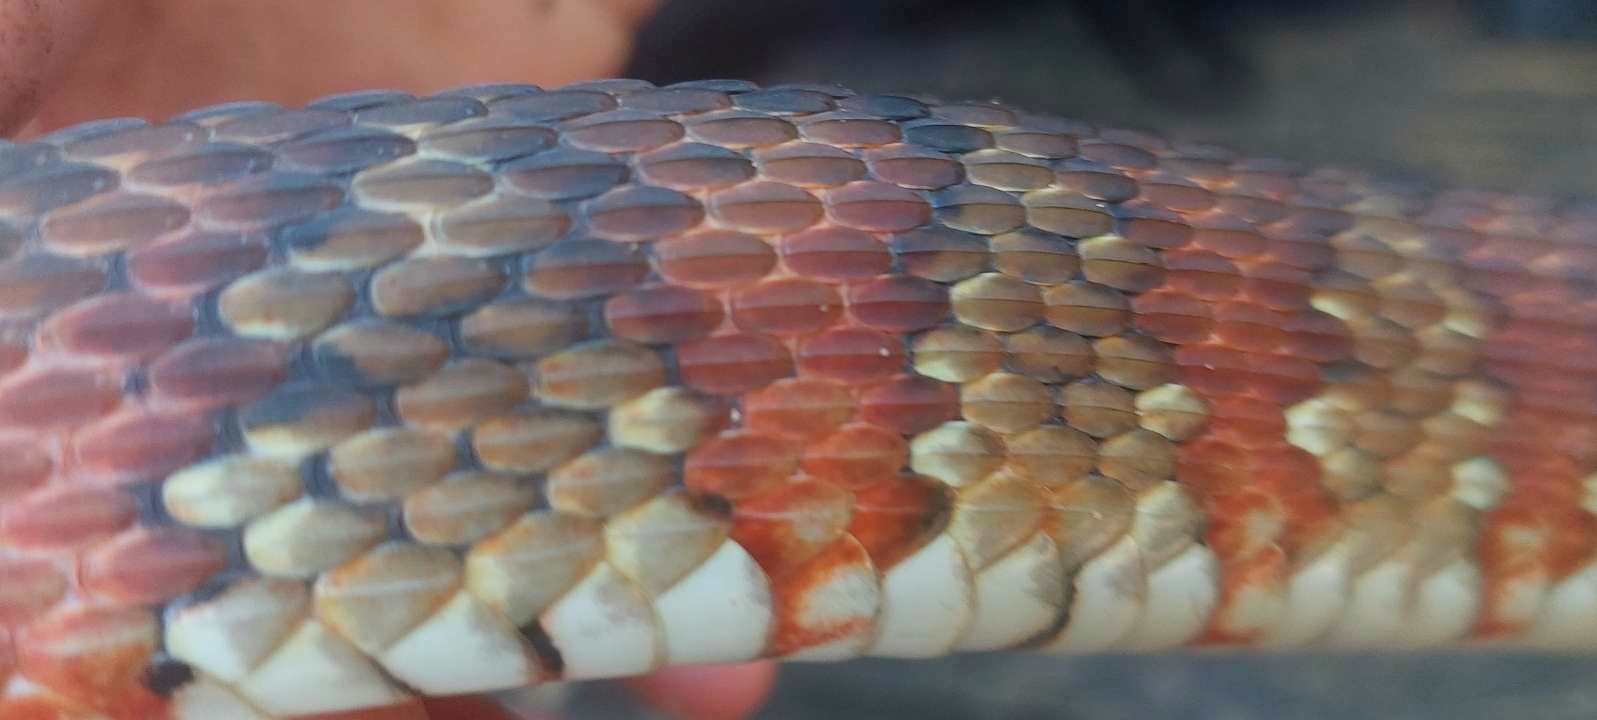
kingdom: Animalia
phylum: Chordata
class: Squamata
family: Colubridae
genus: Nerodia
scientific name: Nerodia fasciata
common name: Southern water snake
